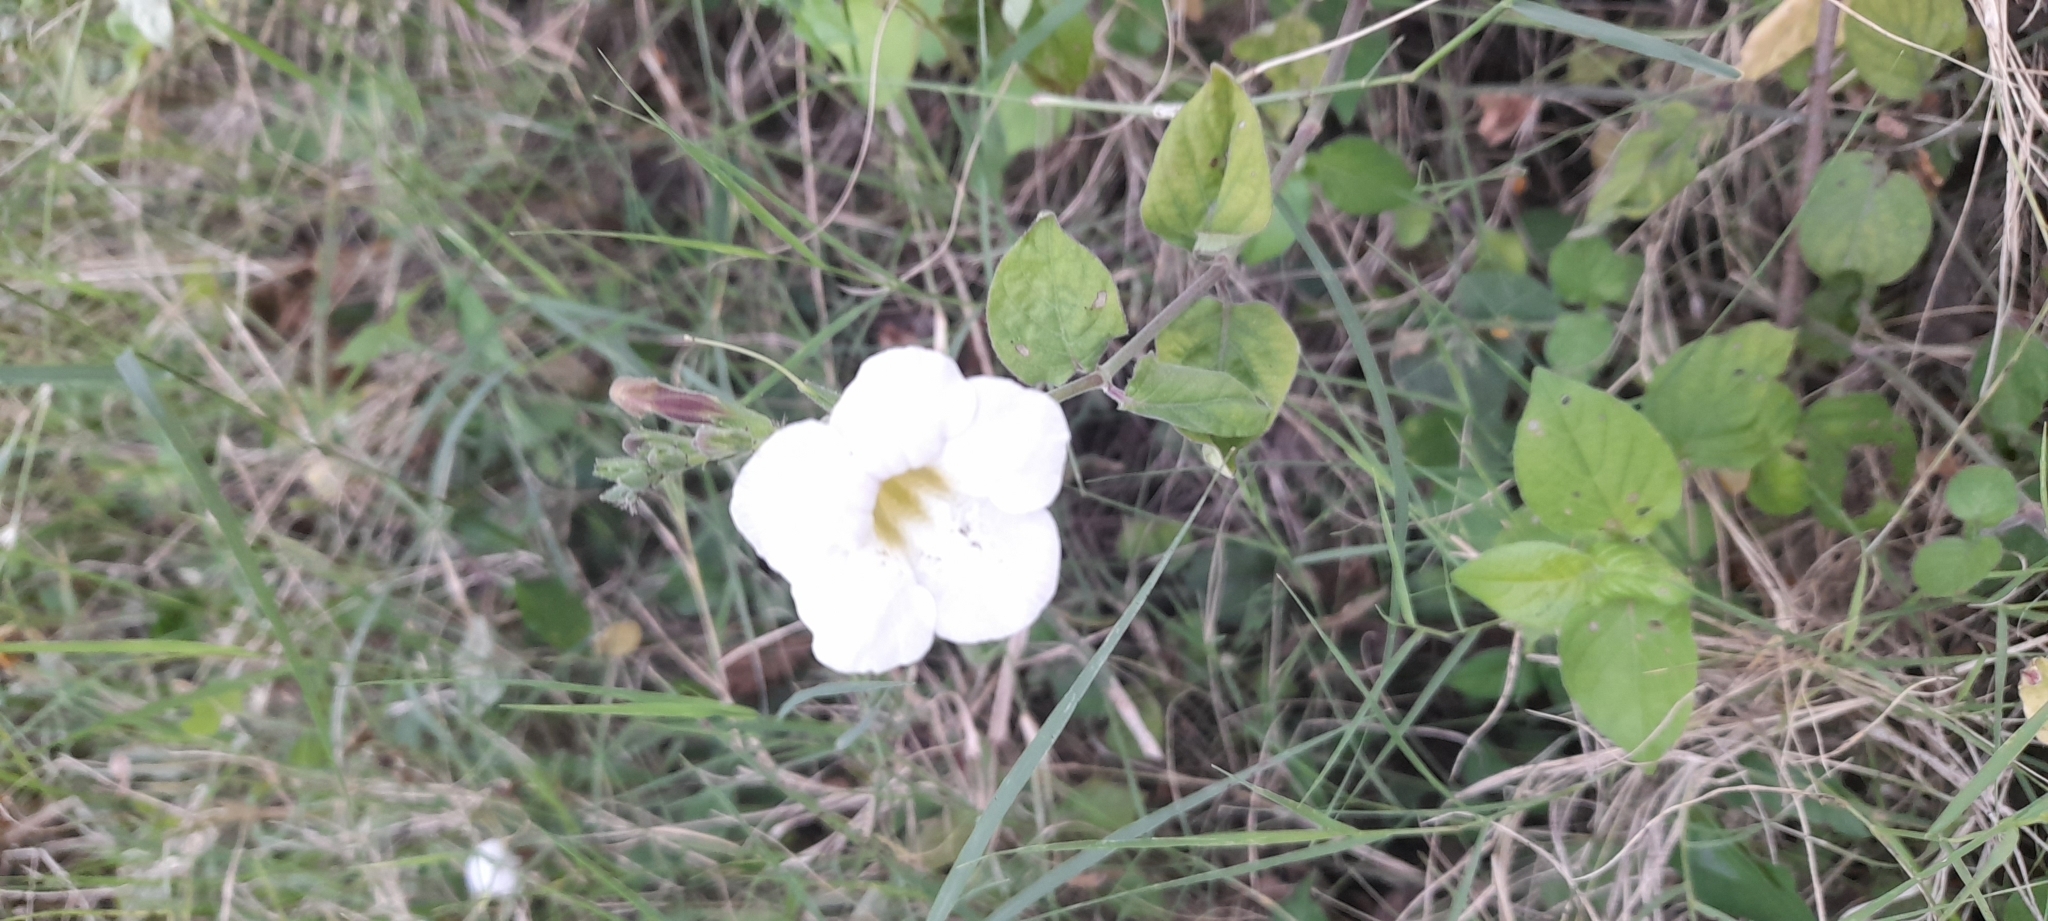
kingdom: Plantae
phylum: Tracheophyta
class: Magnoliopsida
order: Lamiales
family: Acanthaceae
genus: Asystasia
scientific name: Asystasia gangetica
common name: Chinese violet
